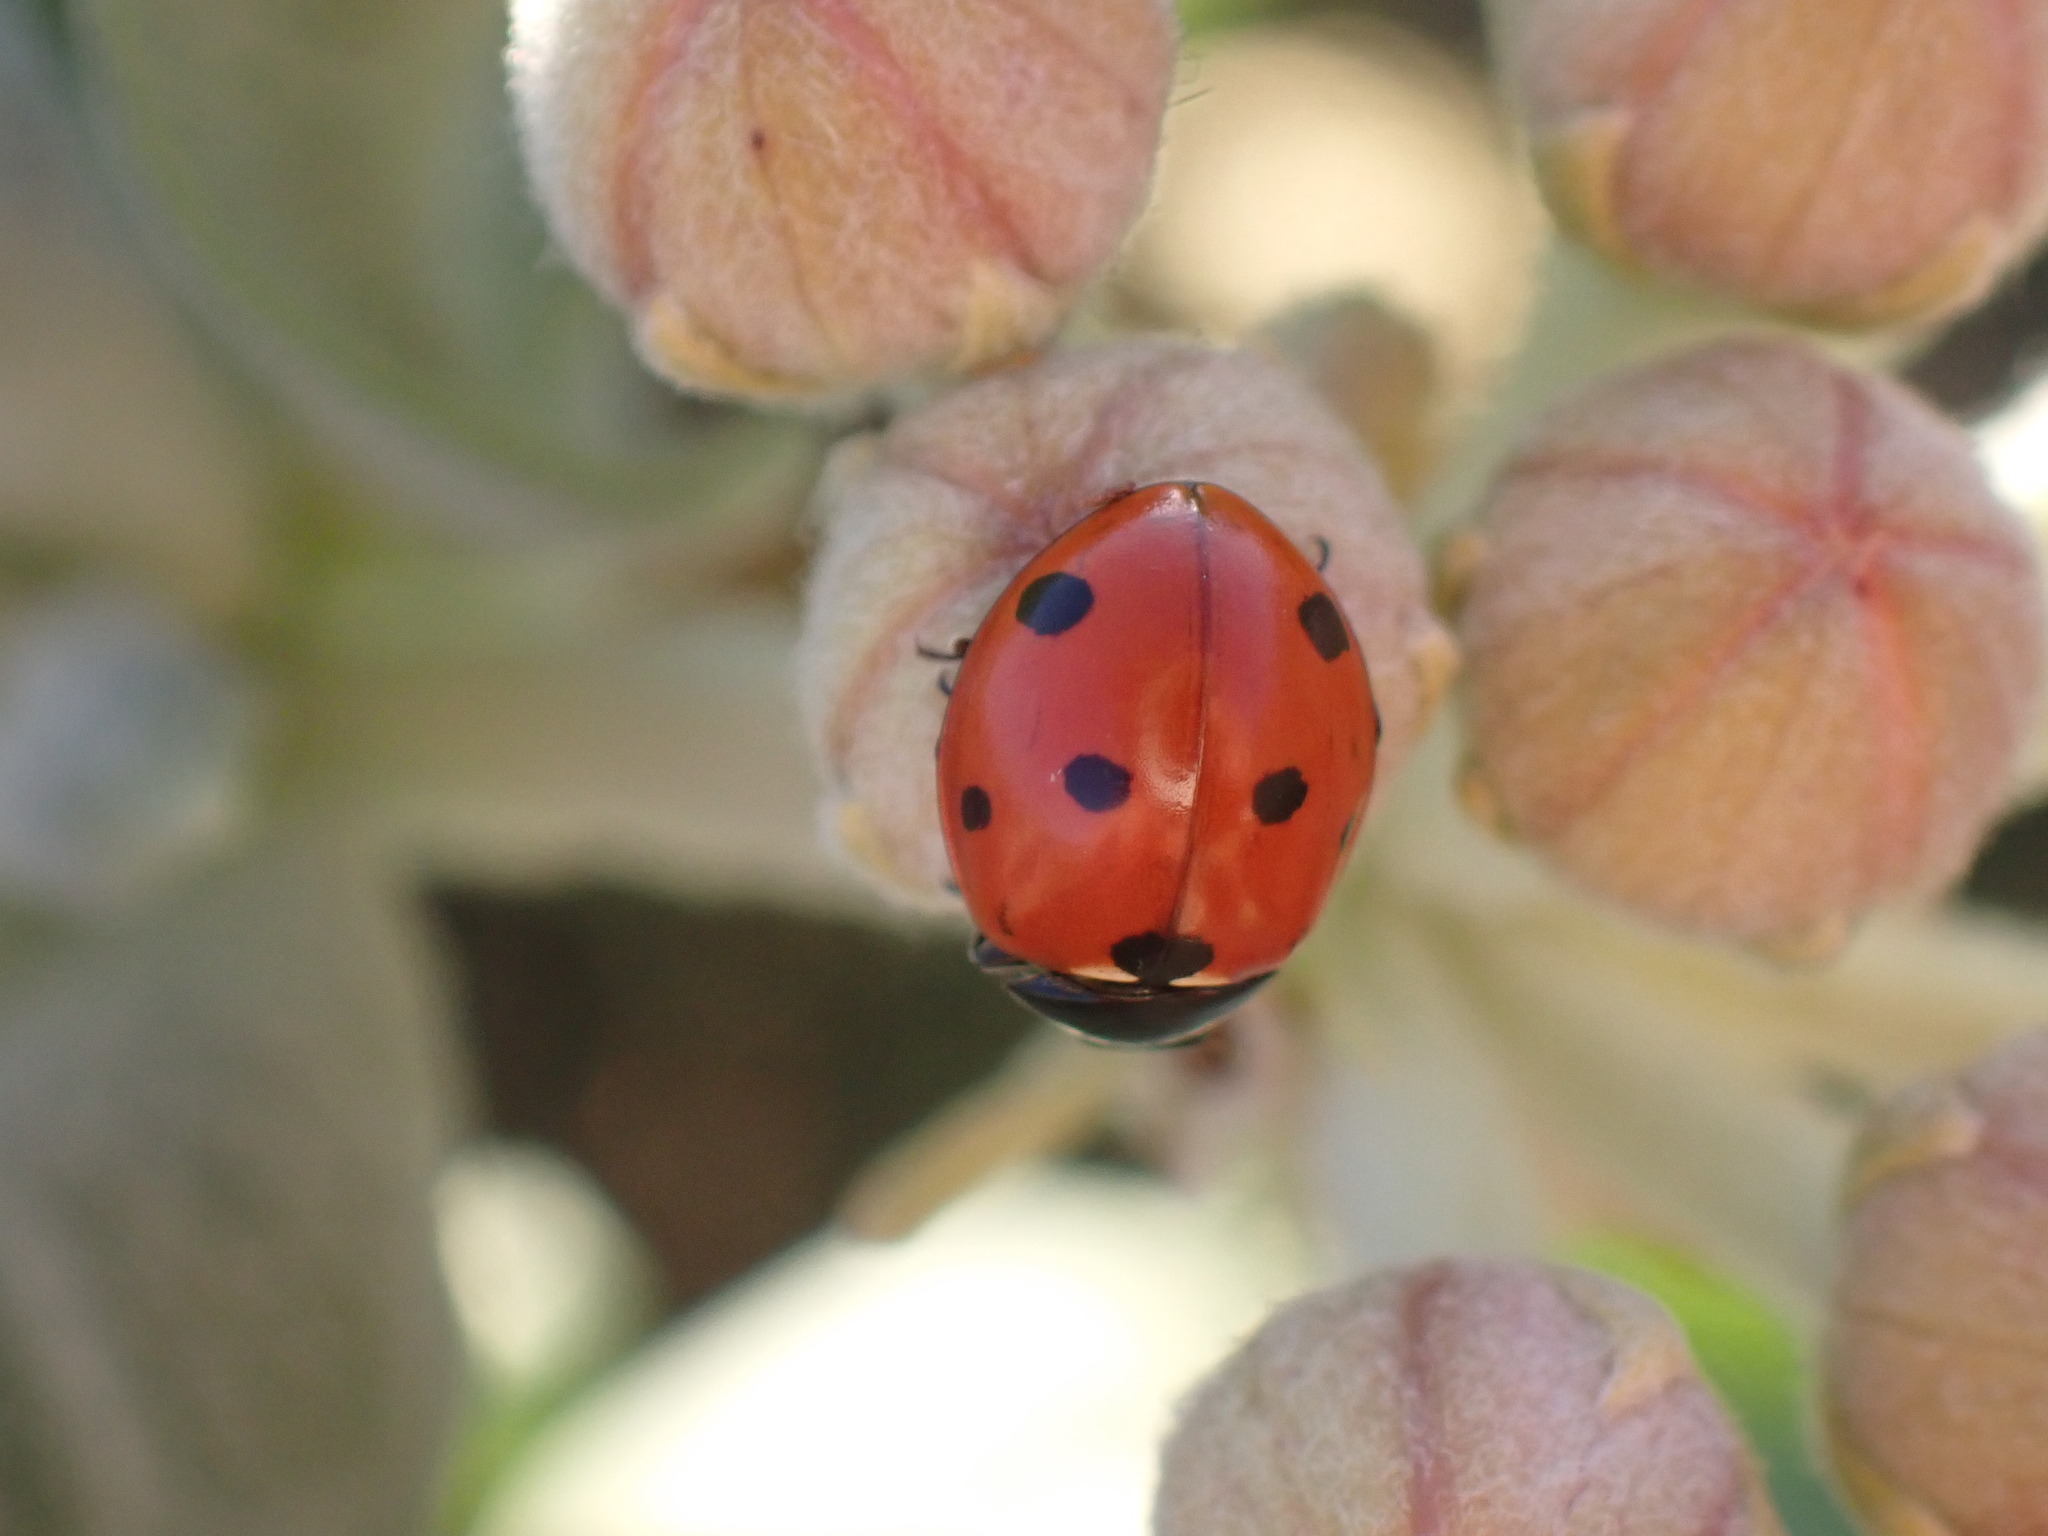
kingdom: Animalia
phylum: Arthropoda
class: Insecta
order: Coleoptera
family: Coccinellidae
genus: Coccinella
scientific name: Coccinella septempunctata
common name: Sevenspotted lady beetle
